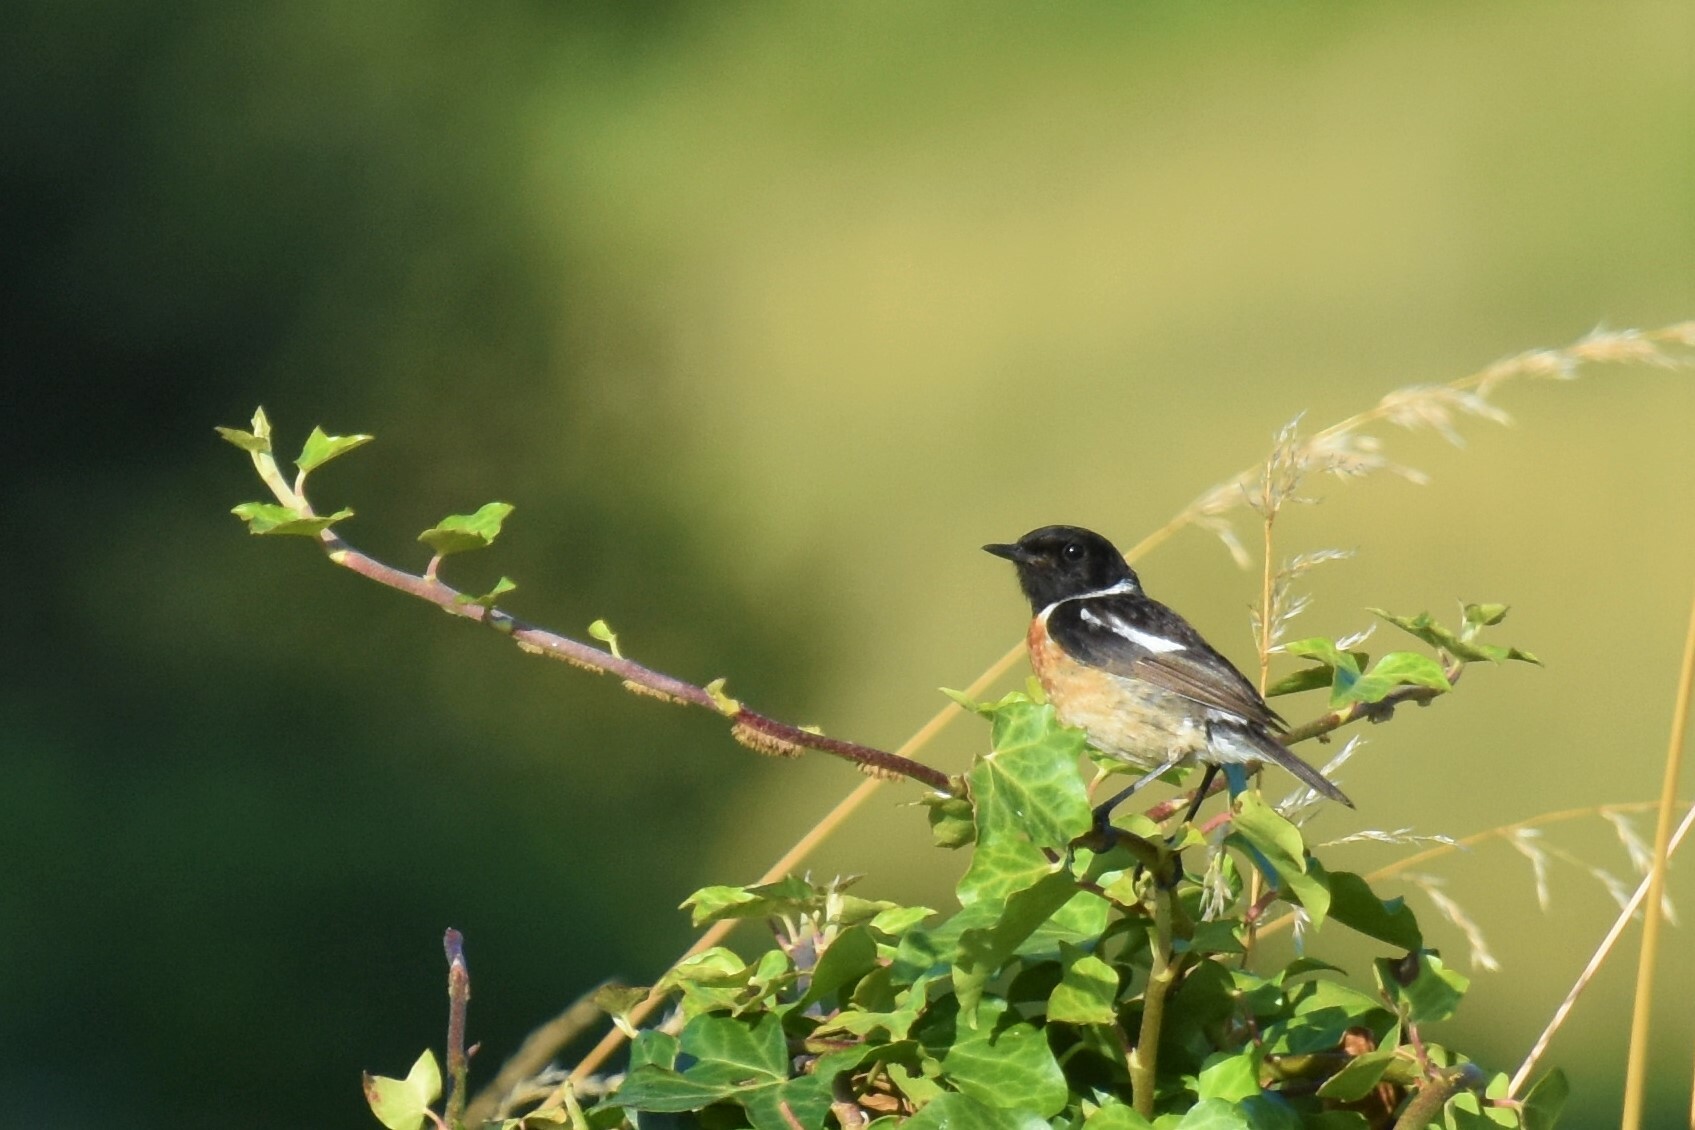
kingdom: Animalia
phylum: Chordata
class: Aves
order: Passeriformes
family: Muscicapidae
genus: Saxicola
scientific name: Saxicola rubicola
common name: European stonechat
